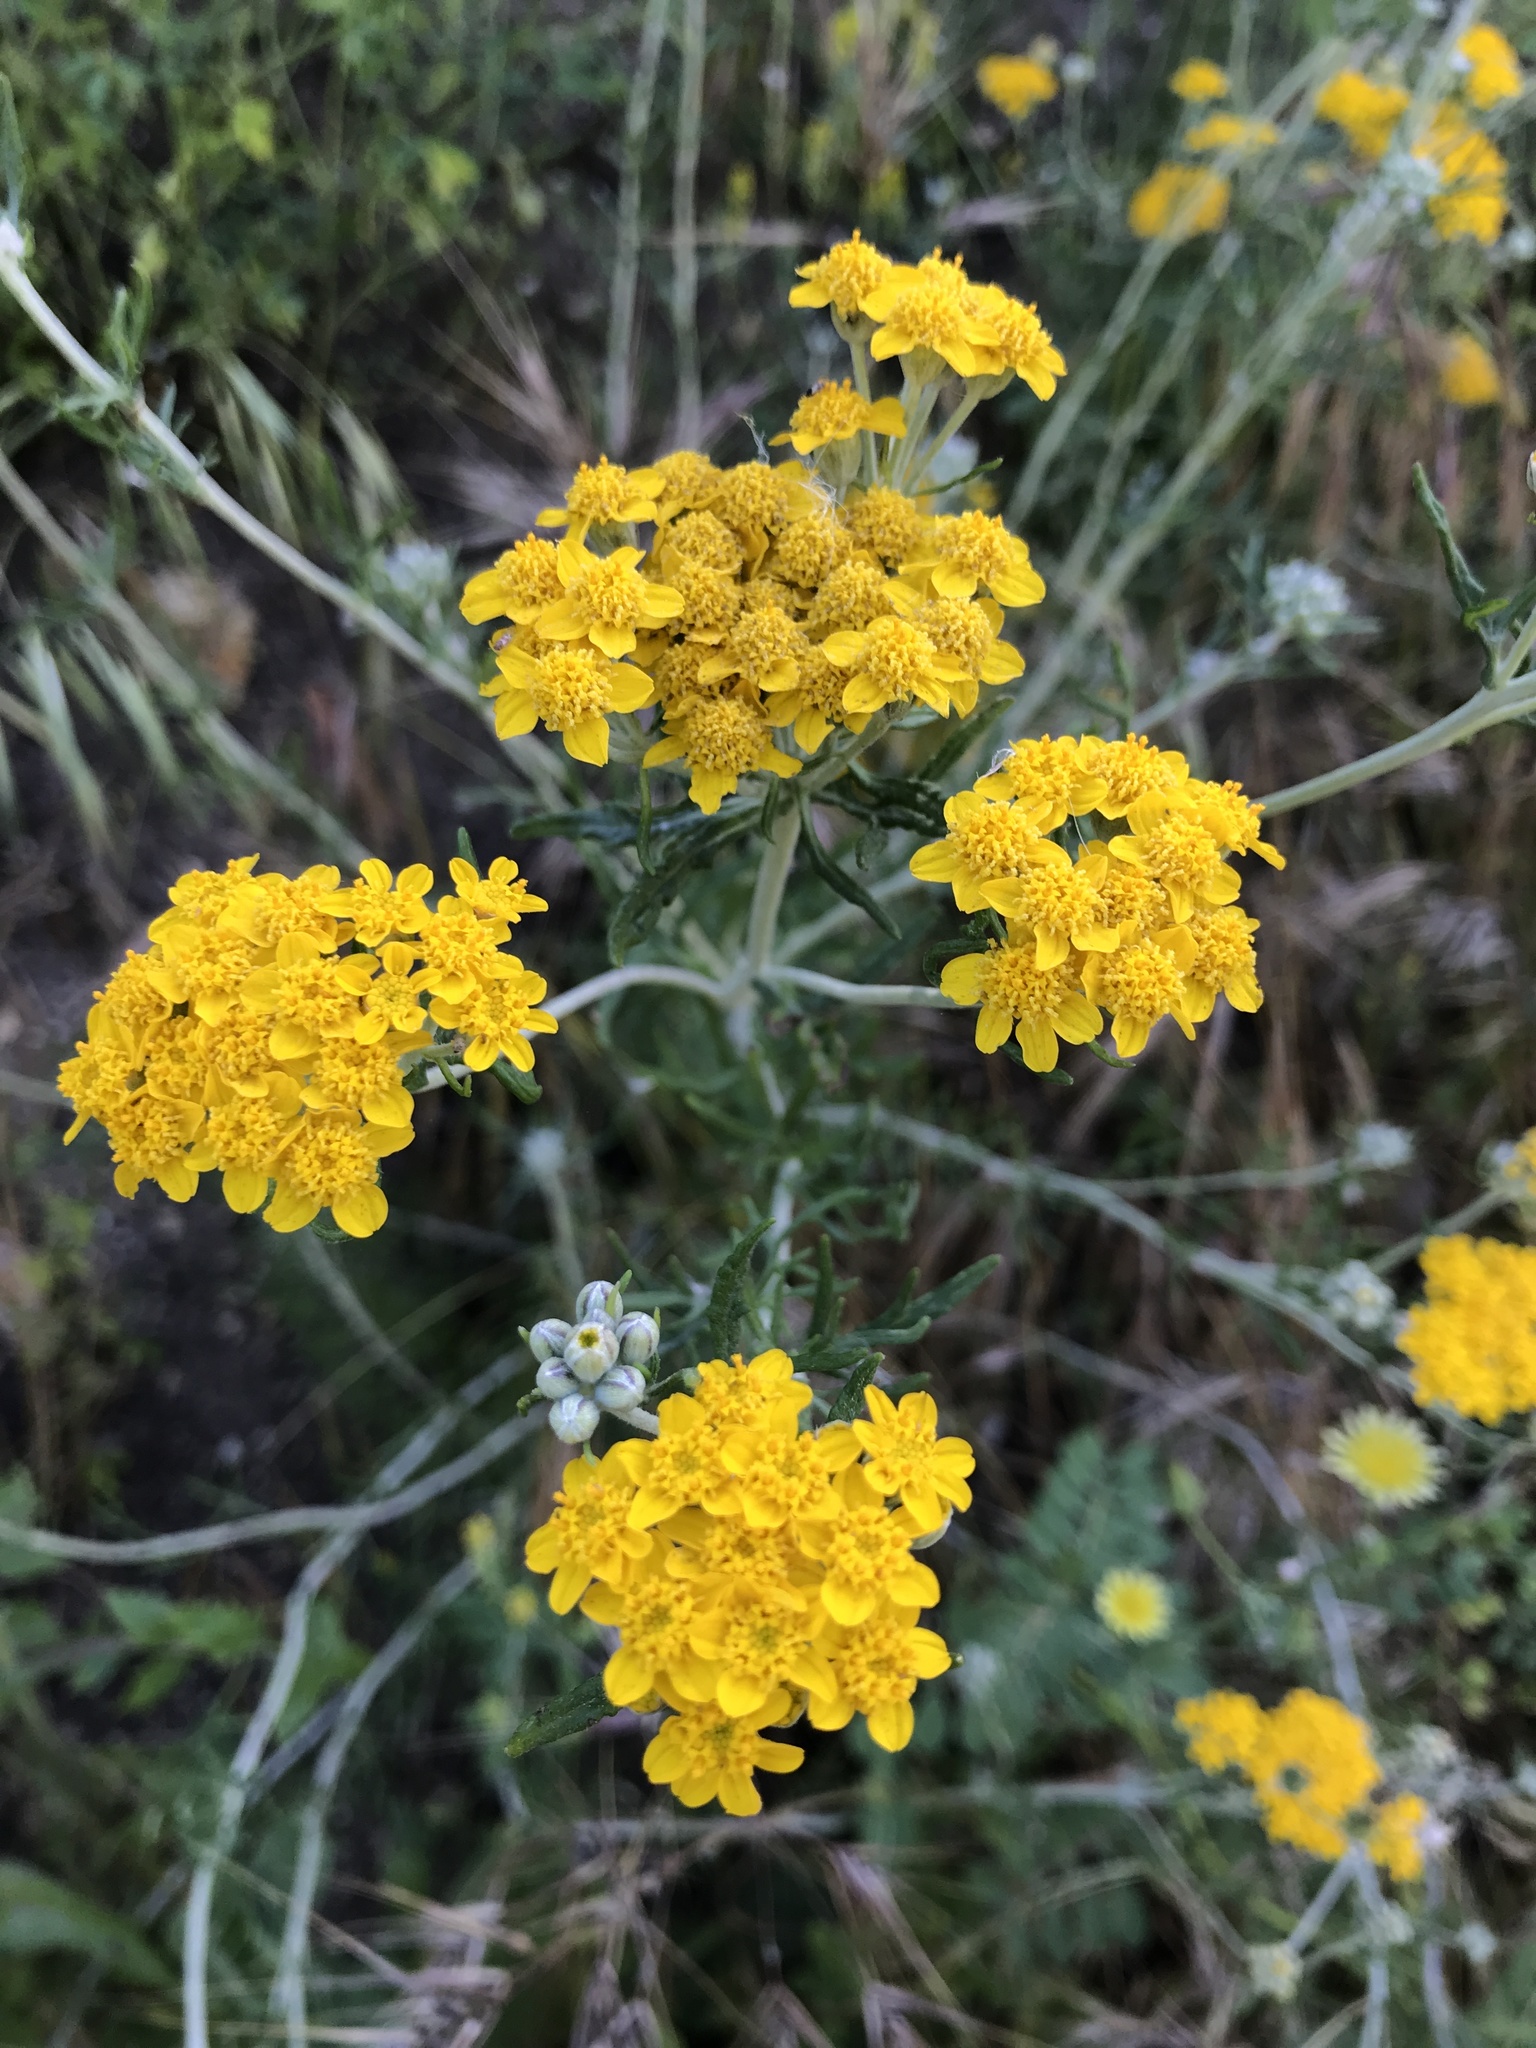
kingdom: Plantae
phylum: Tracheophyta
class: Magnoliopsida
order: Asterales
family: Asteraceae
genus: Eriophyllum
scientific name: Eriophyllum confertiflorum
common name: Golden-yarrow
